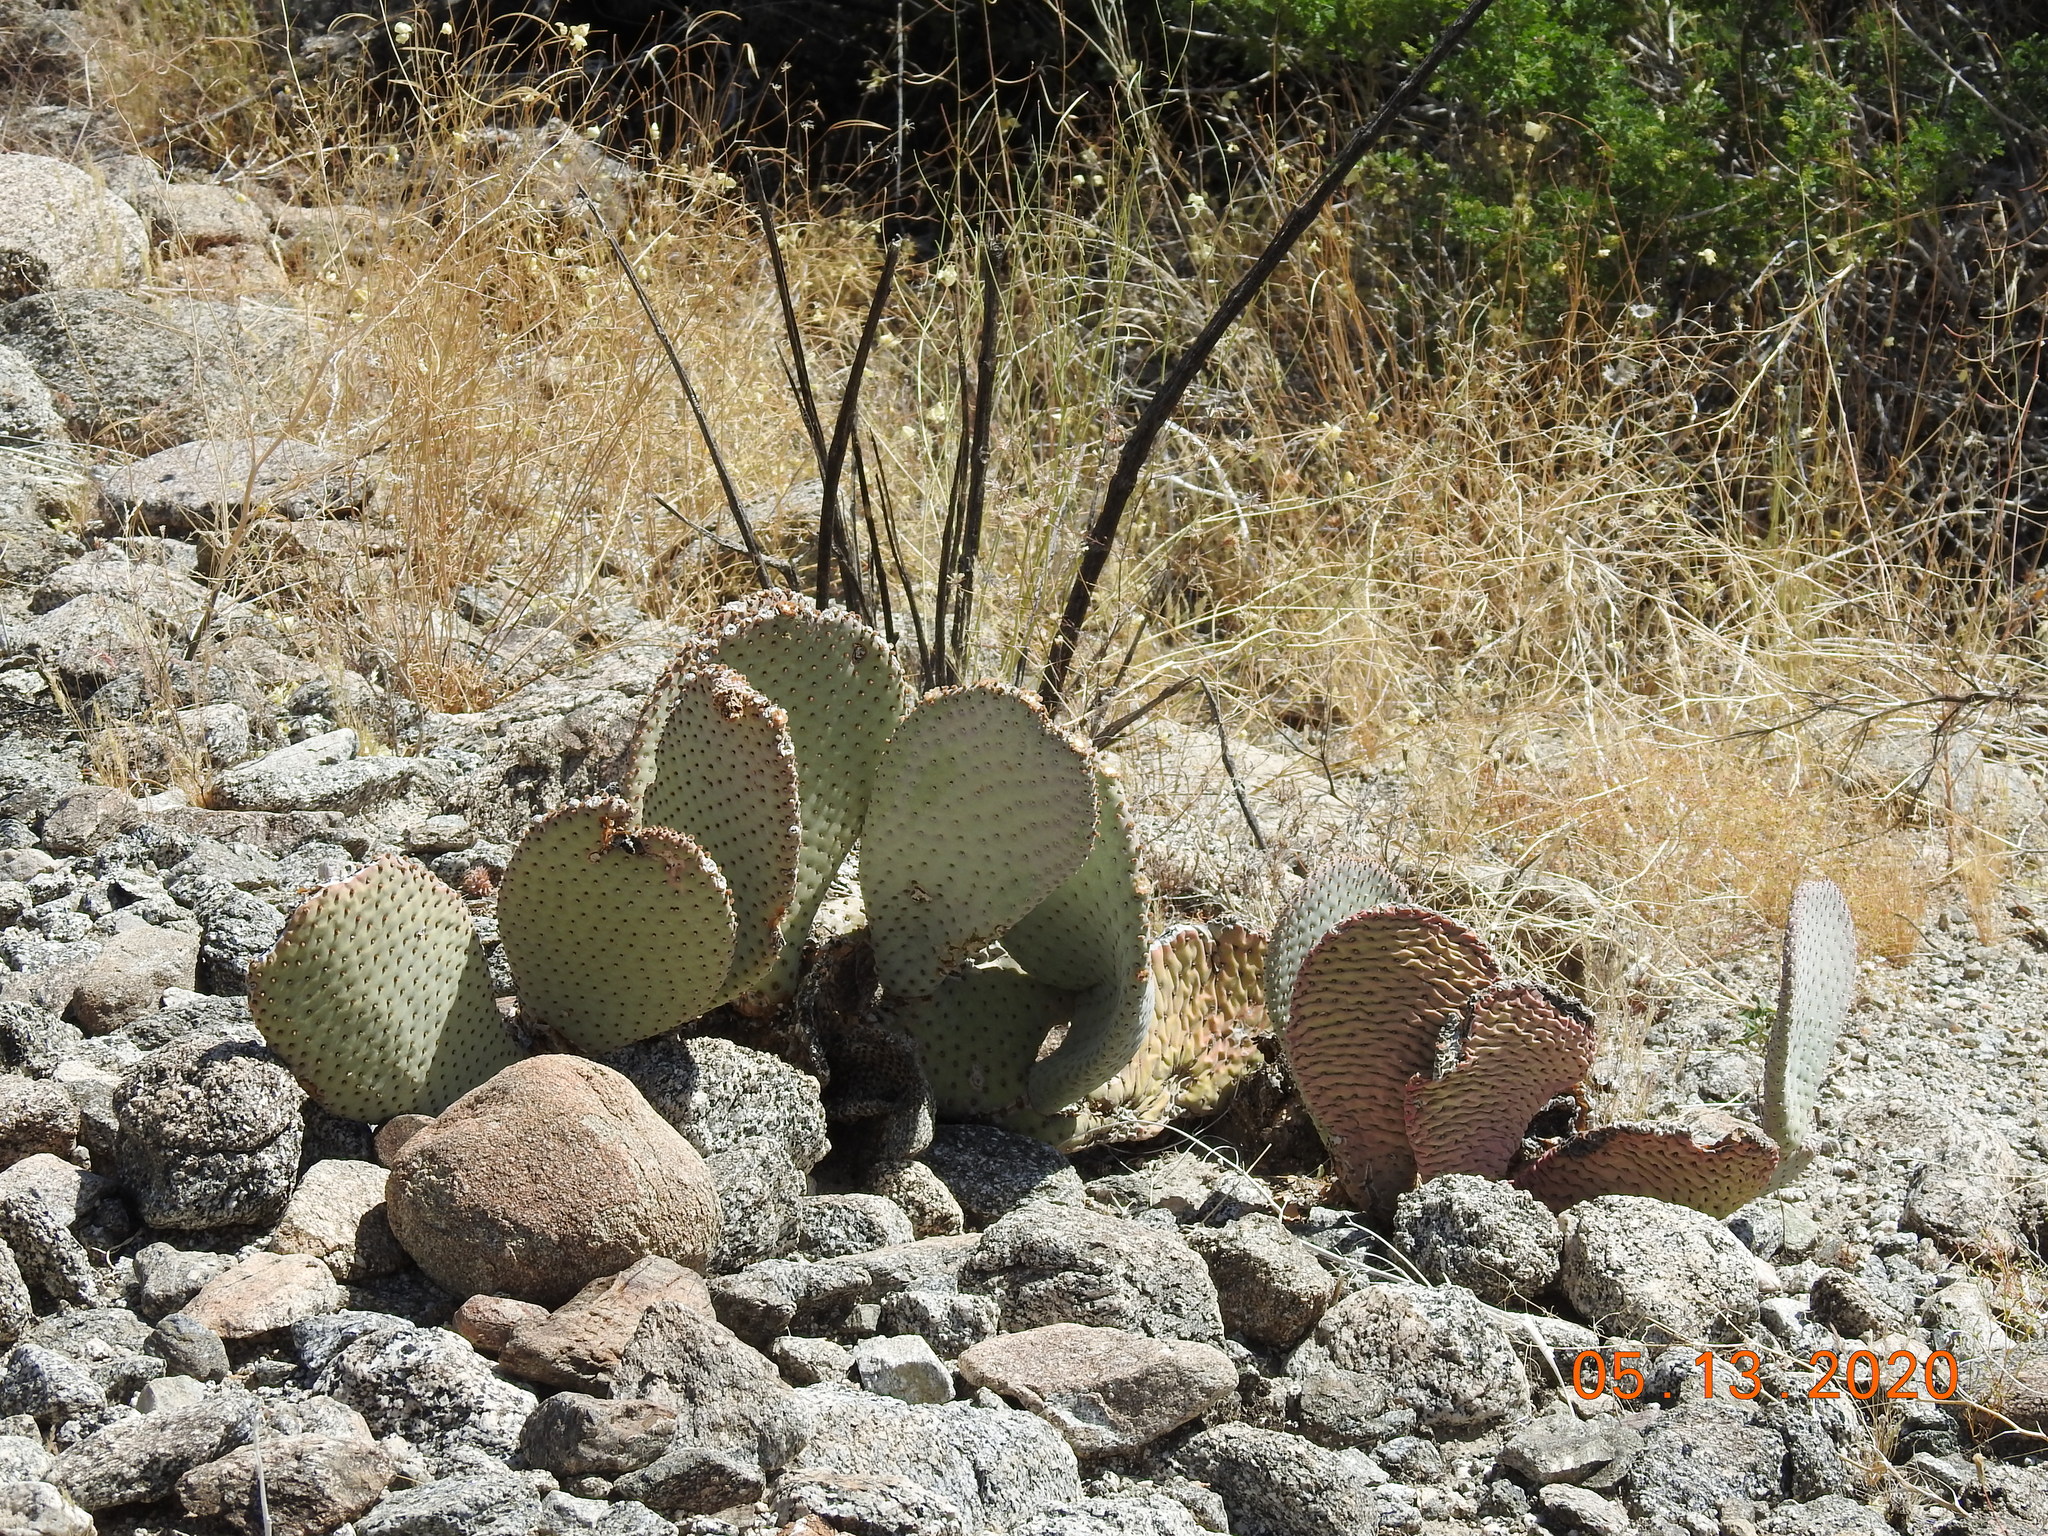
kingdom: Plantae
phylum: Tracheophyta
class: Magnoliopsida
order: Caryophyllales
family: Cactaceae
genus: Opuntia
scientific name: Opuntia basilaris
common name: Beavertail prickly-pear
